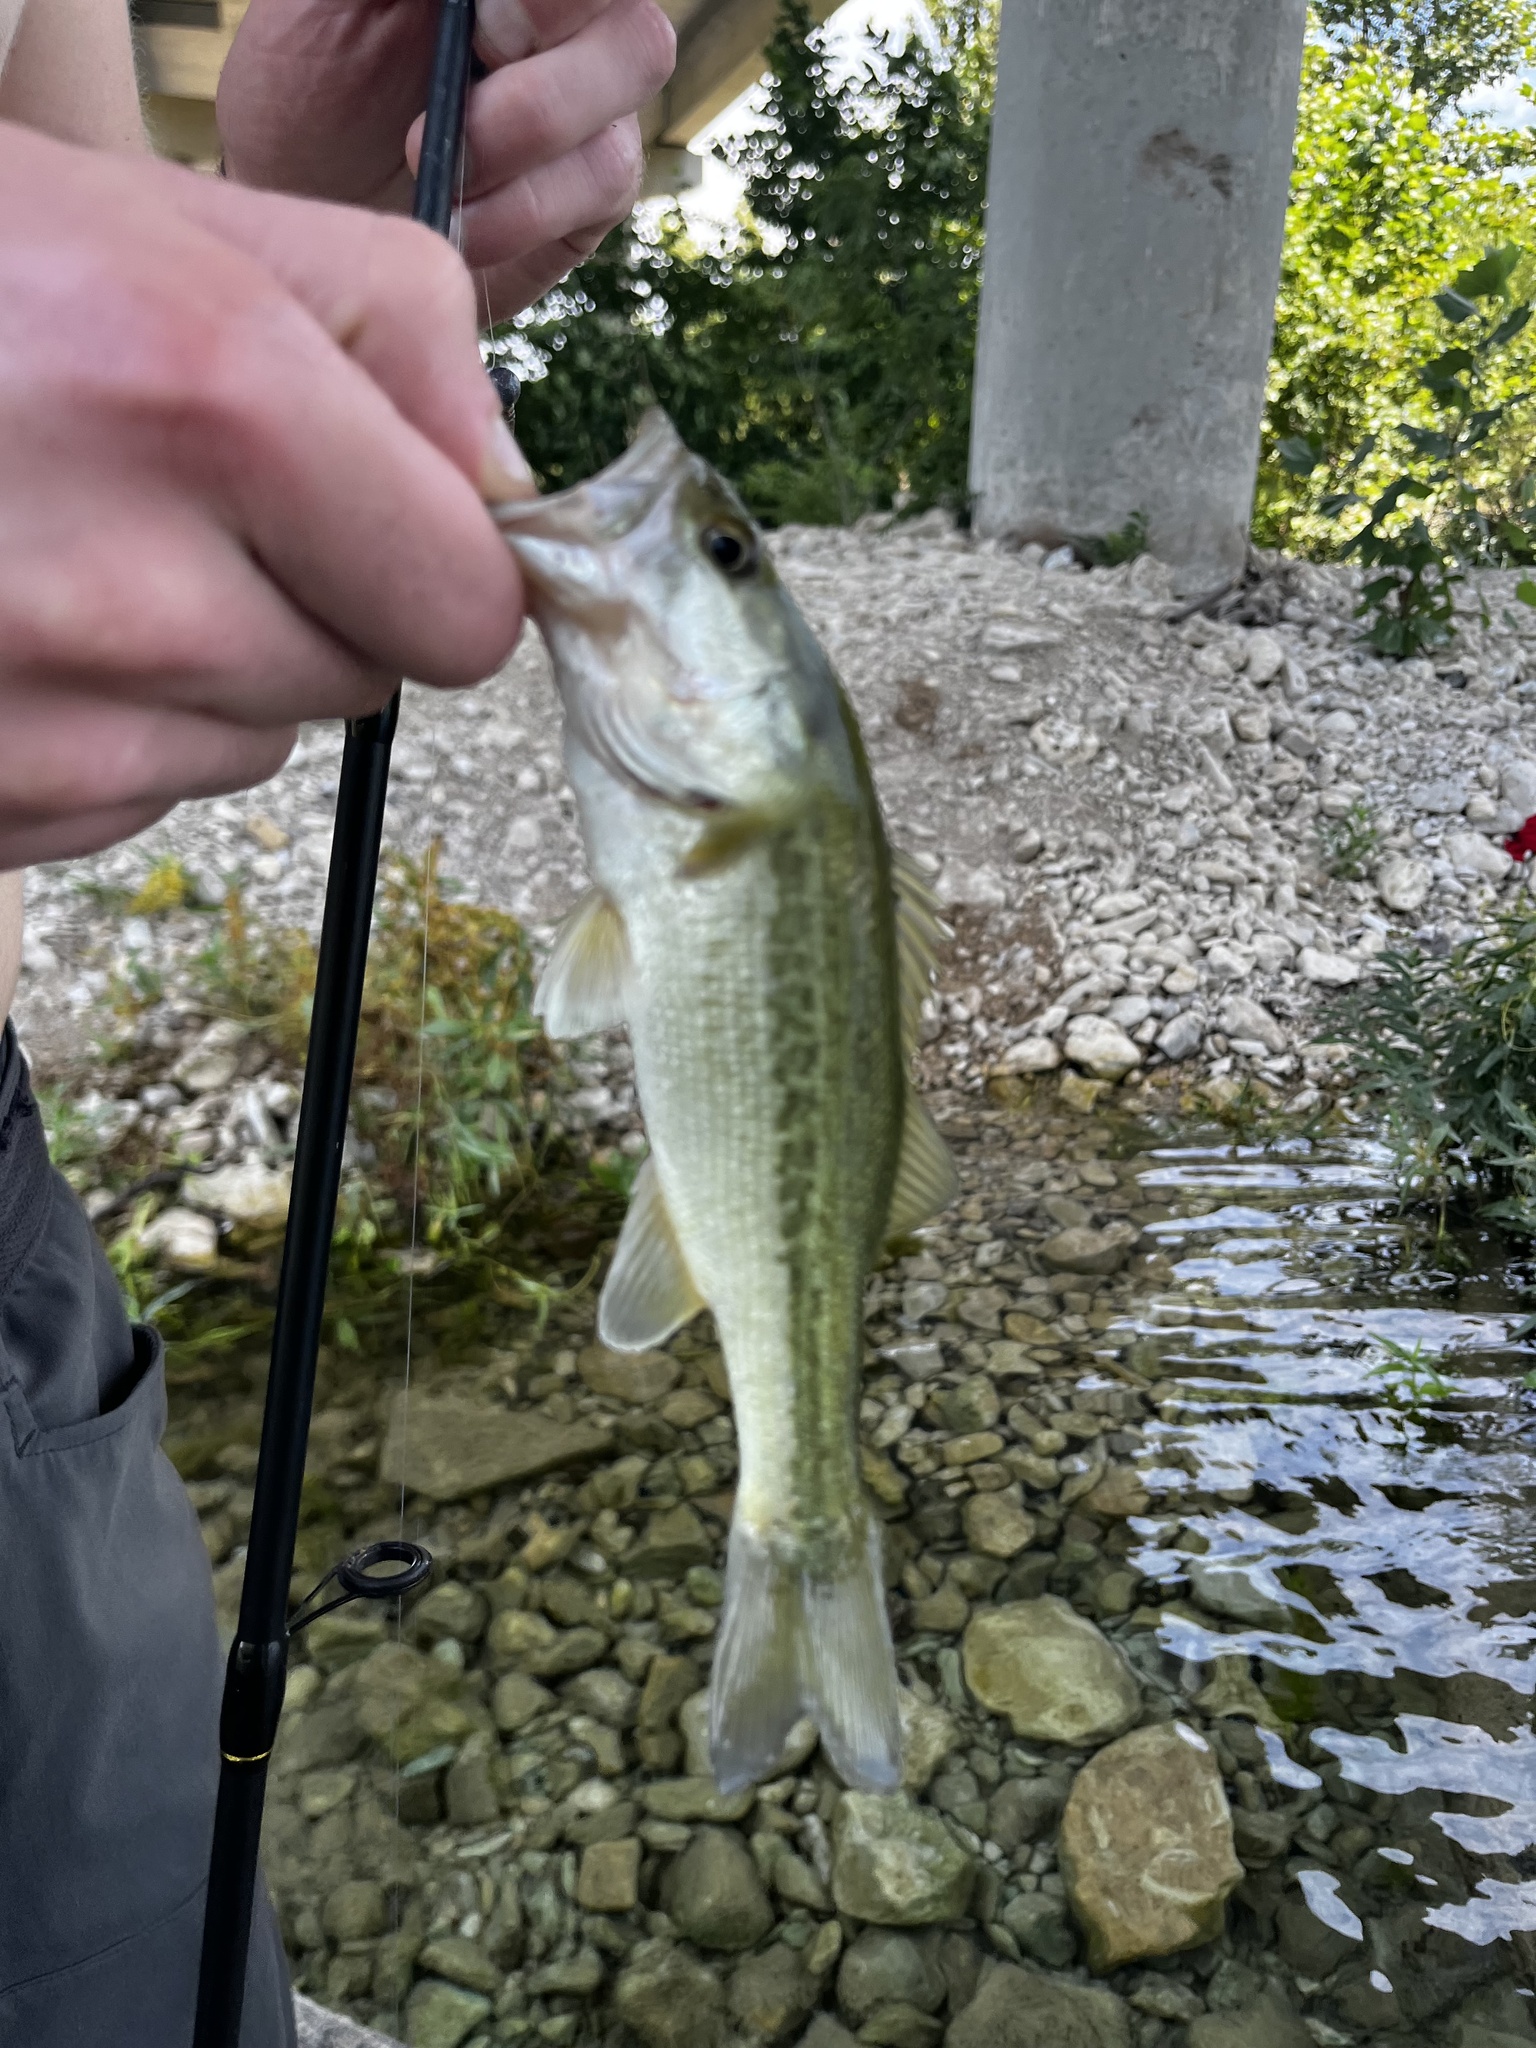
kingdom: Animalia
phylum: Chordata
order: Perciformes
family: Centrarchidae
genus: Micropterus
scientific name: Micropterus
